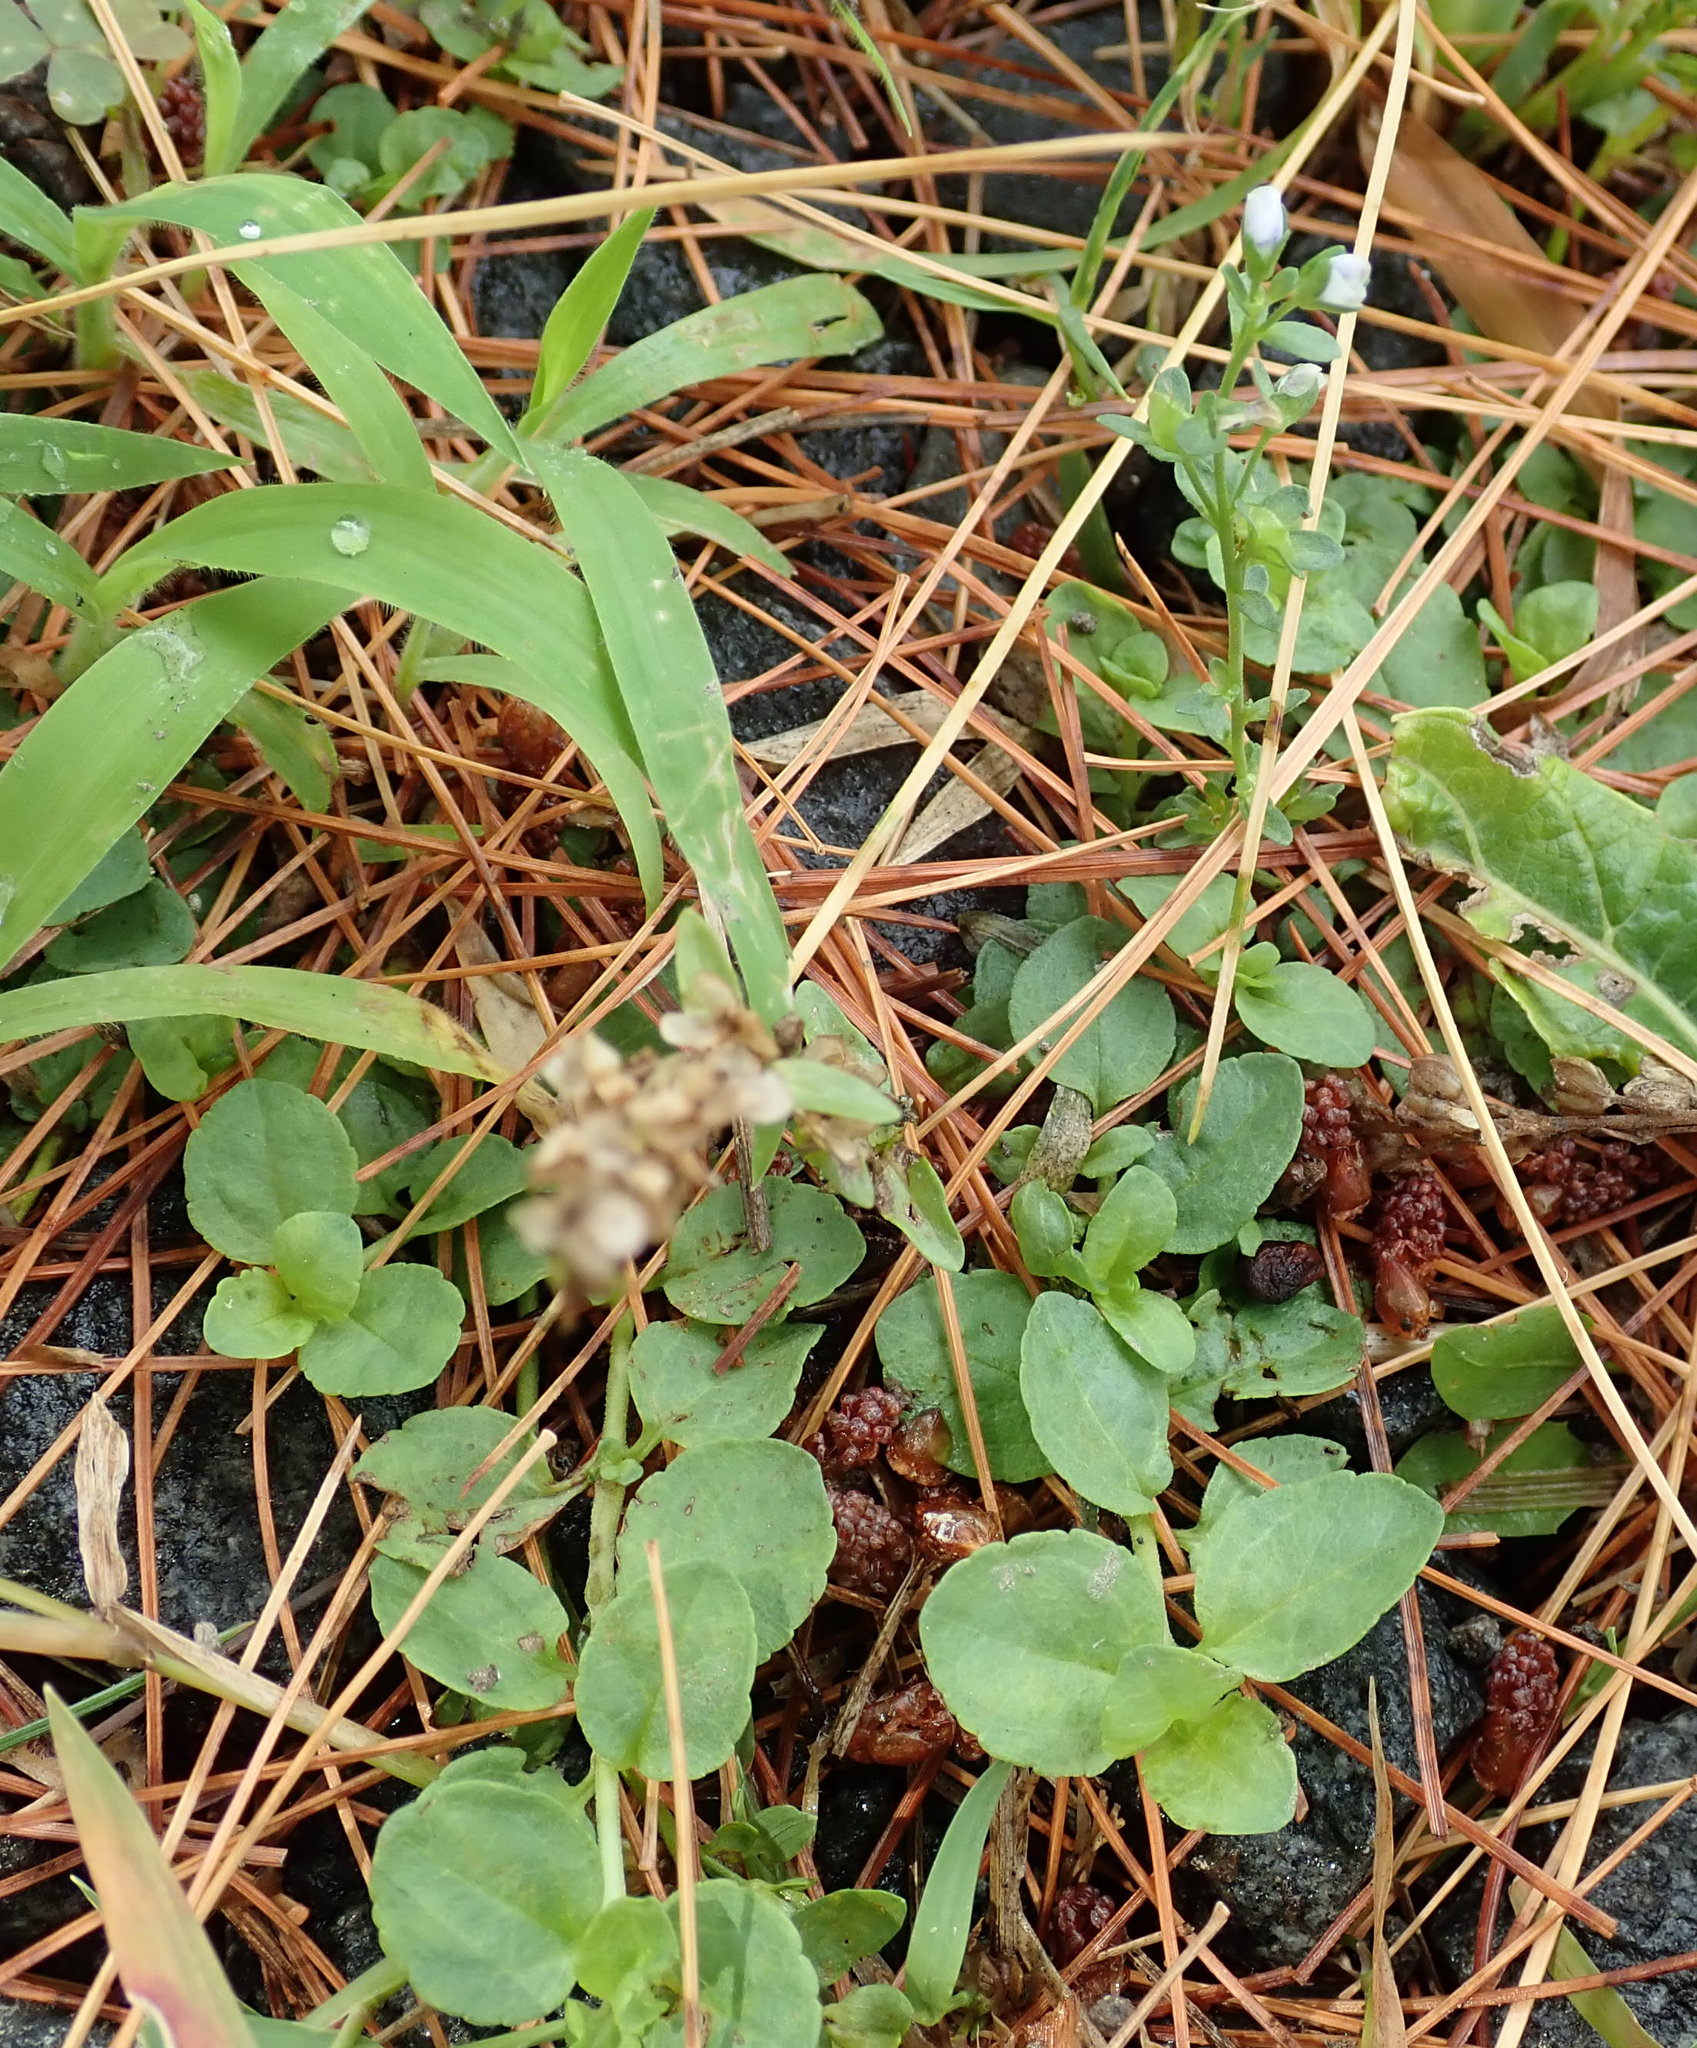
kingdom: Plantae
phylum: Tracheophyta
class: Magnoliopsida
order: Lamiales
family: Plantaginaceae
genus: Veronica
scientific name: Veronica serpyllifolia
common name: Thyme-leaved speedwell
